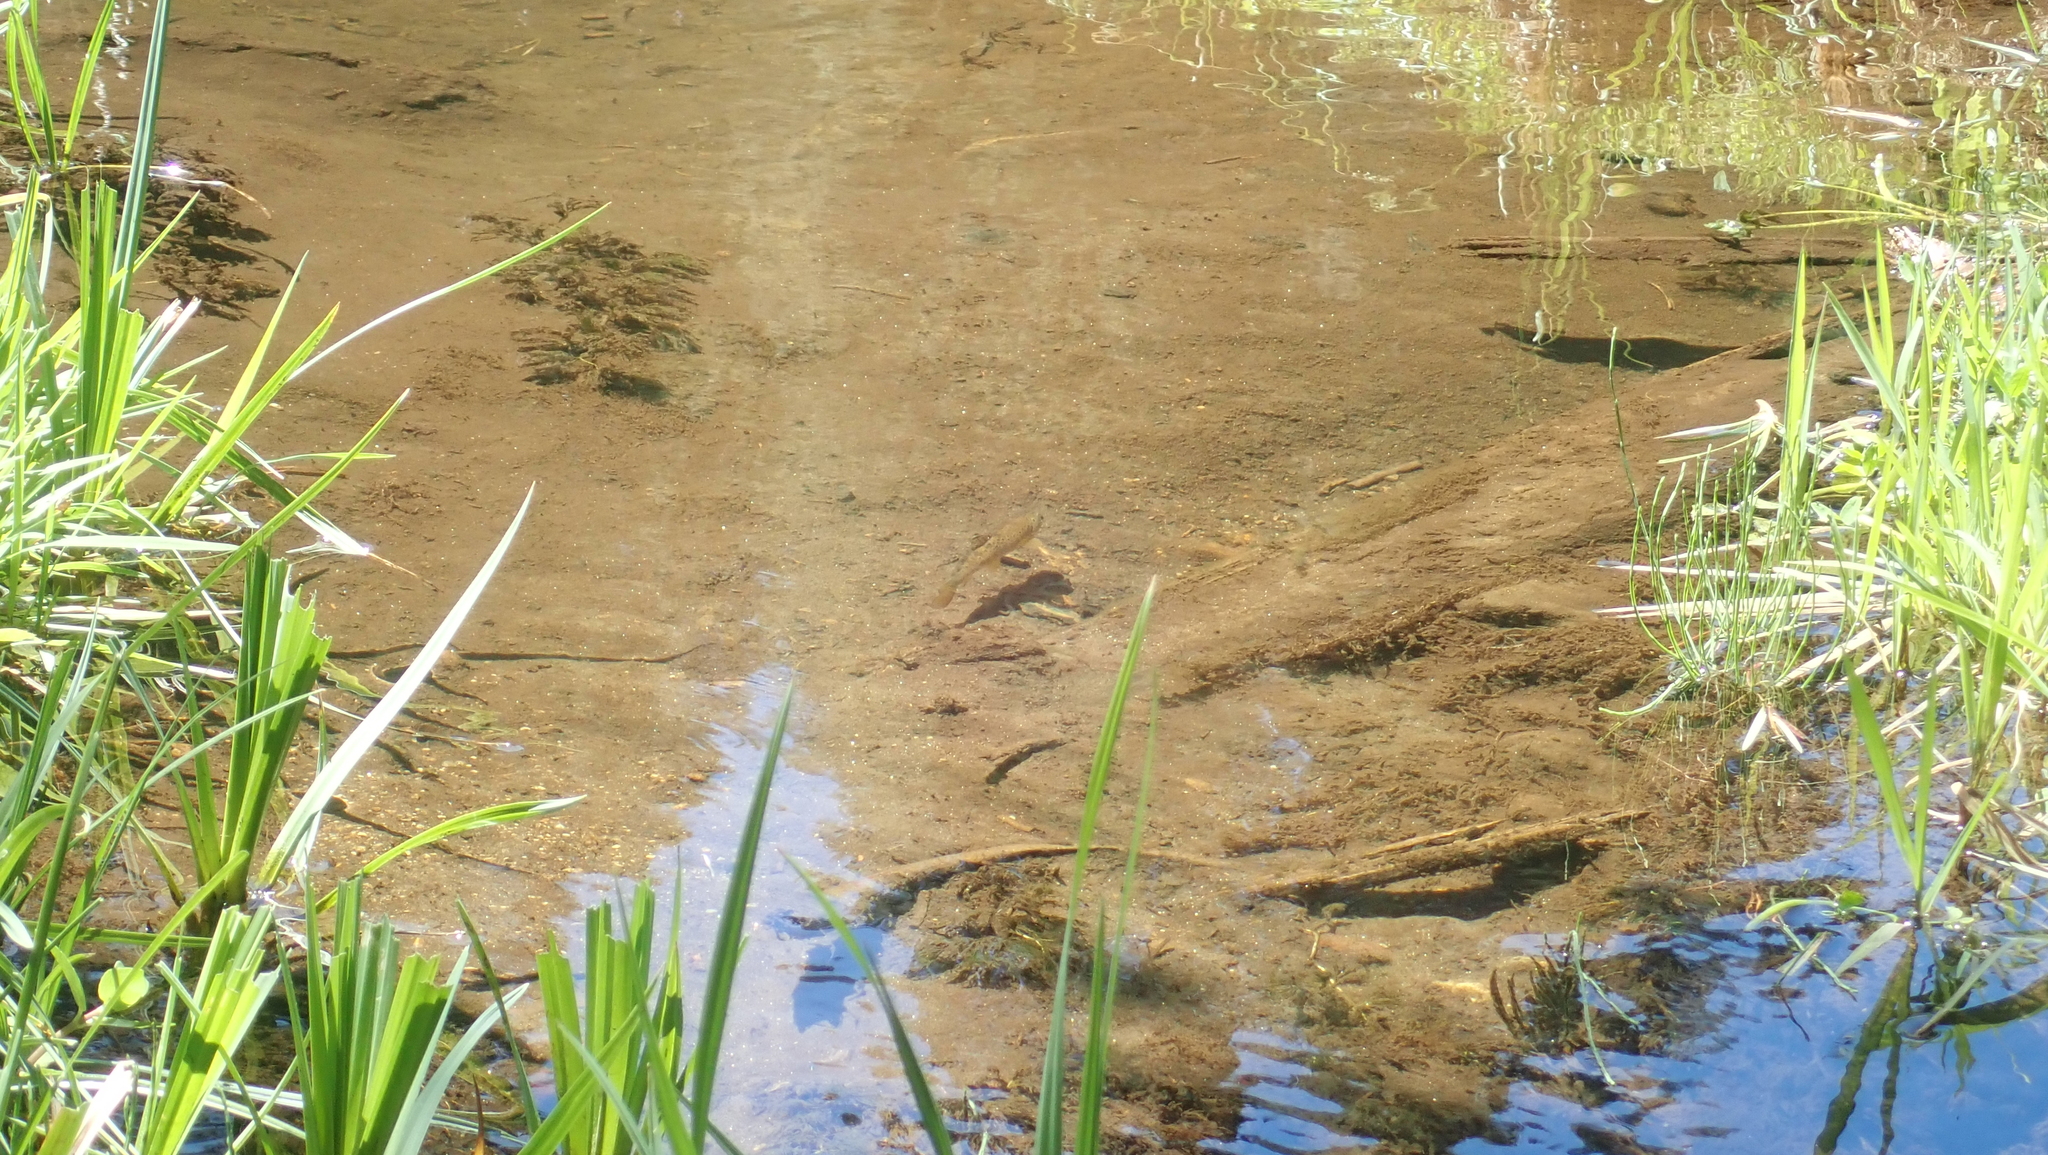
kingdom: Animalia
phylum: Chordata
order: Salmoniformes
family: Salmonidae
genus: Salmo
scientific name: Salmo trutta
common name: Brown trout
